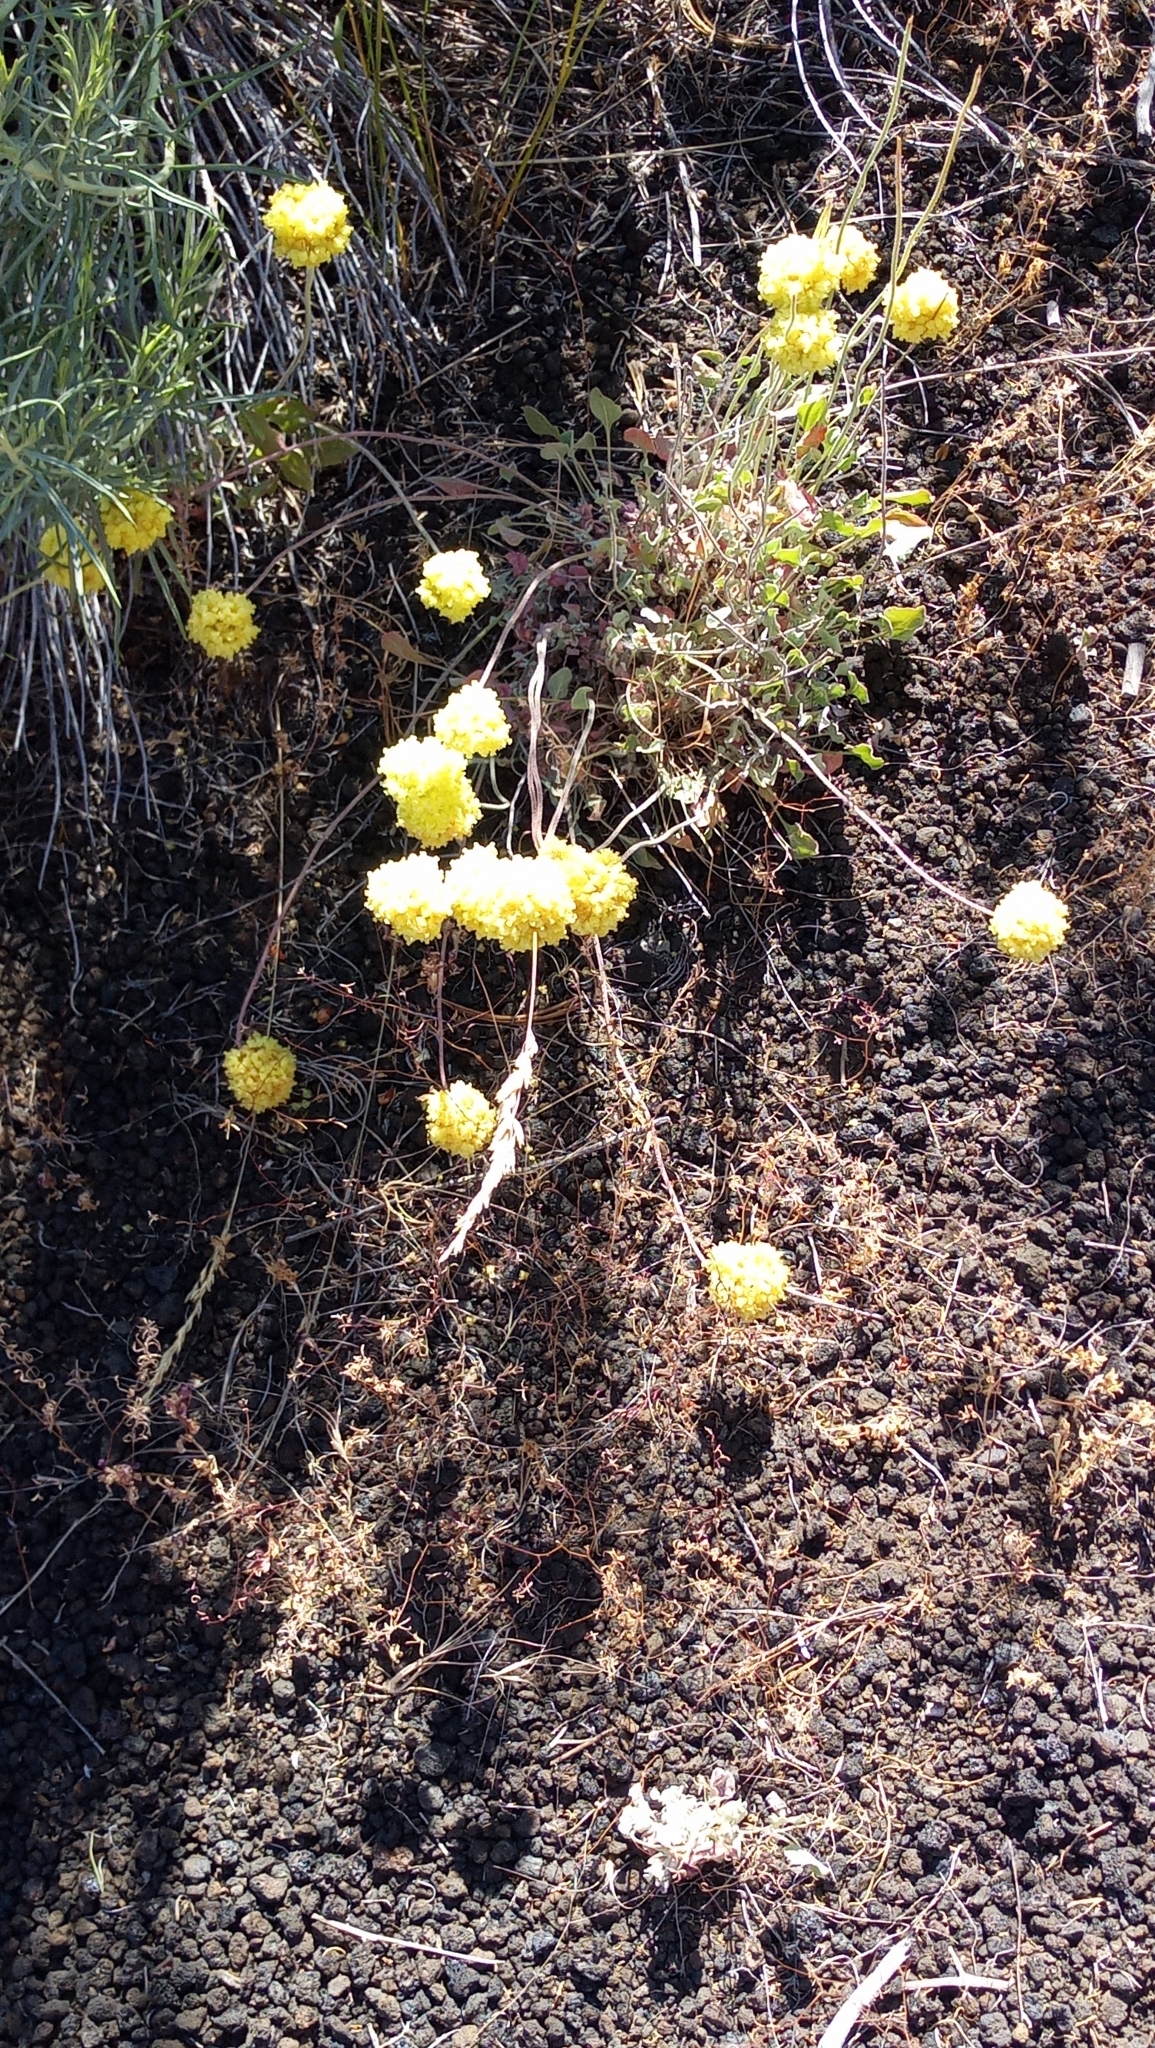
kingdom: Plantae
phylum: Tracheophyta
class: Magnoliopsida
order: Caryophyllales
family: Polygonaceae
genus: Eriogonum
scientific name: Eriogonum ovalifolium
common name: Cushion buckwheat
